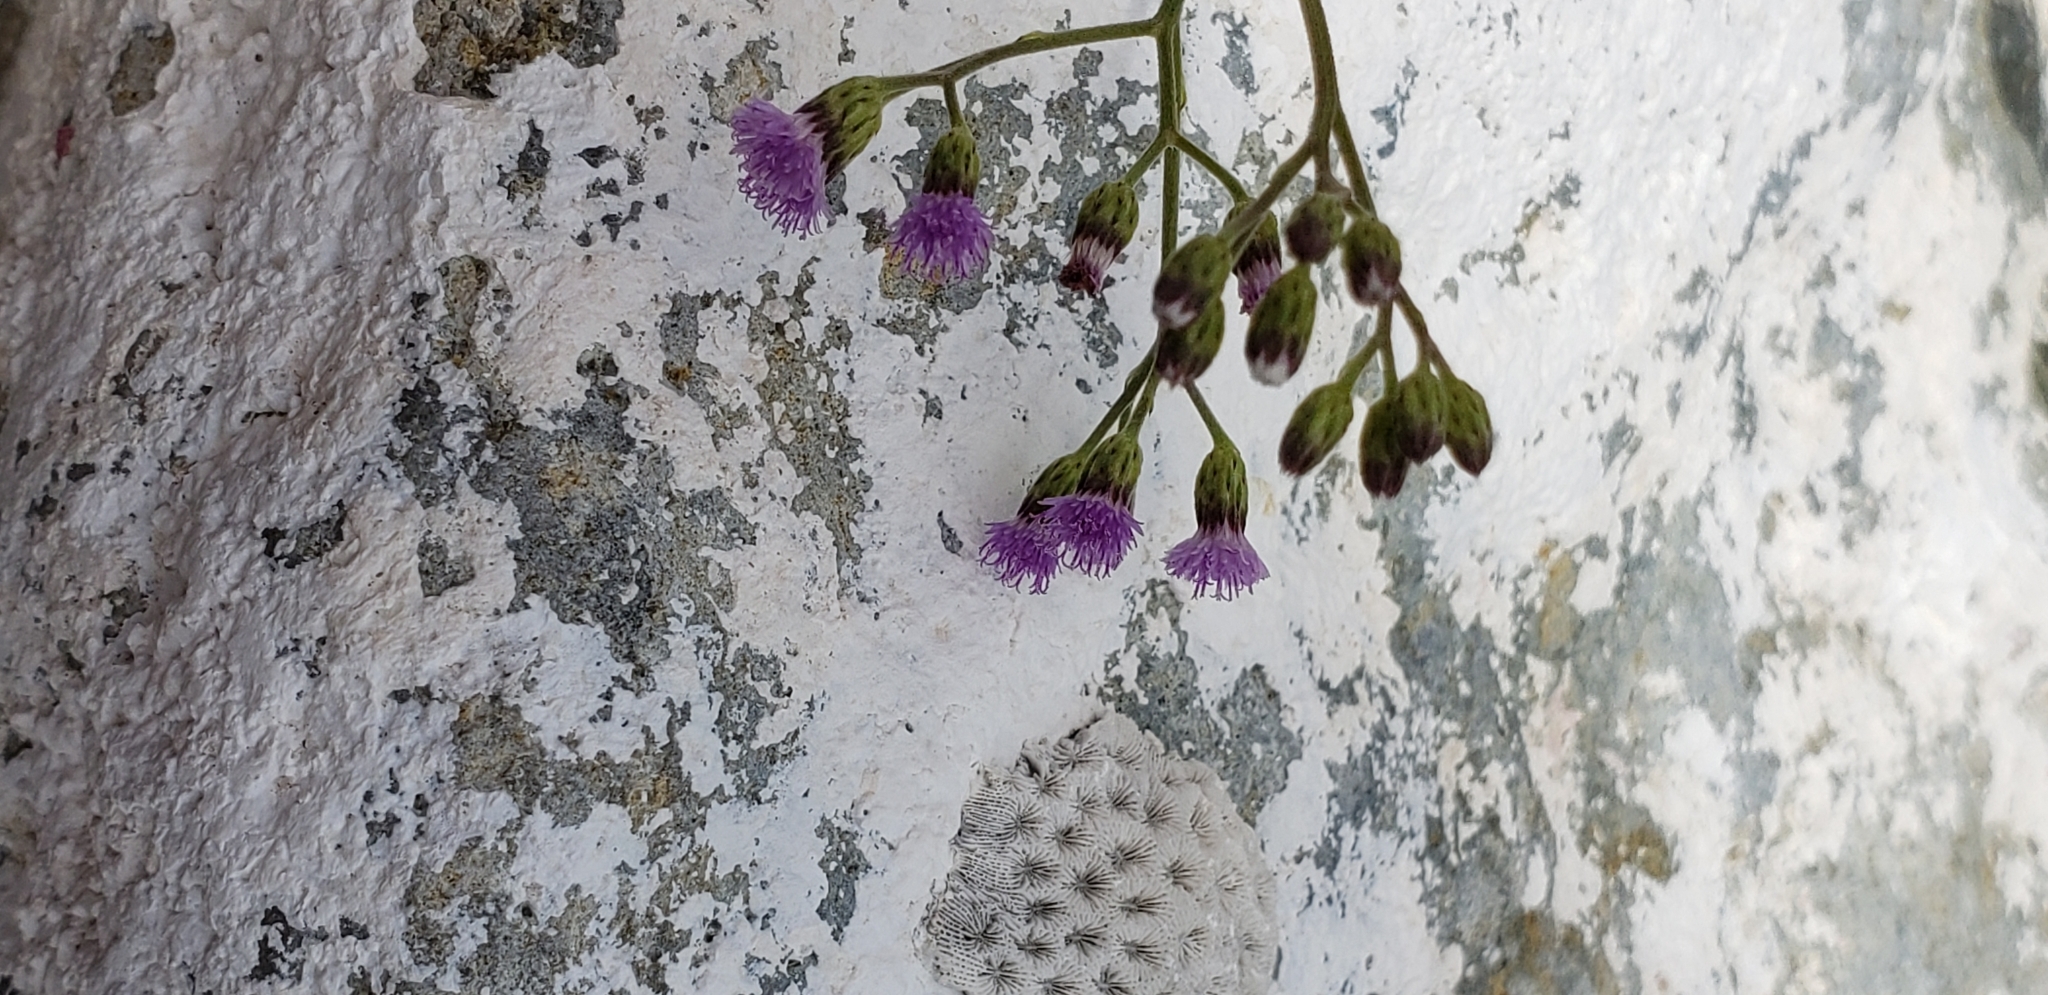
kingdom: Plantae
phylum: Tracheophyta
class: Magnoliopsida
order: Asterales
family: Asteraceae
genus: Cyanthillium
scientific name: Cyanthillium cinereum
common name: Little ironweed
